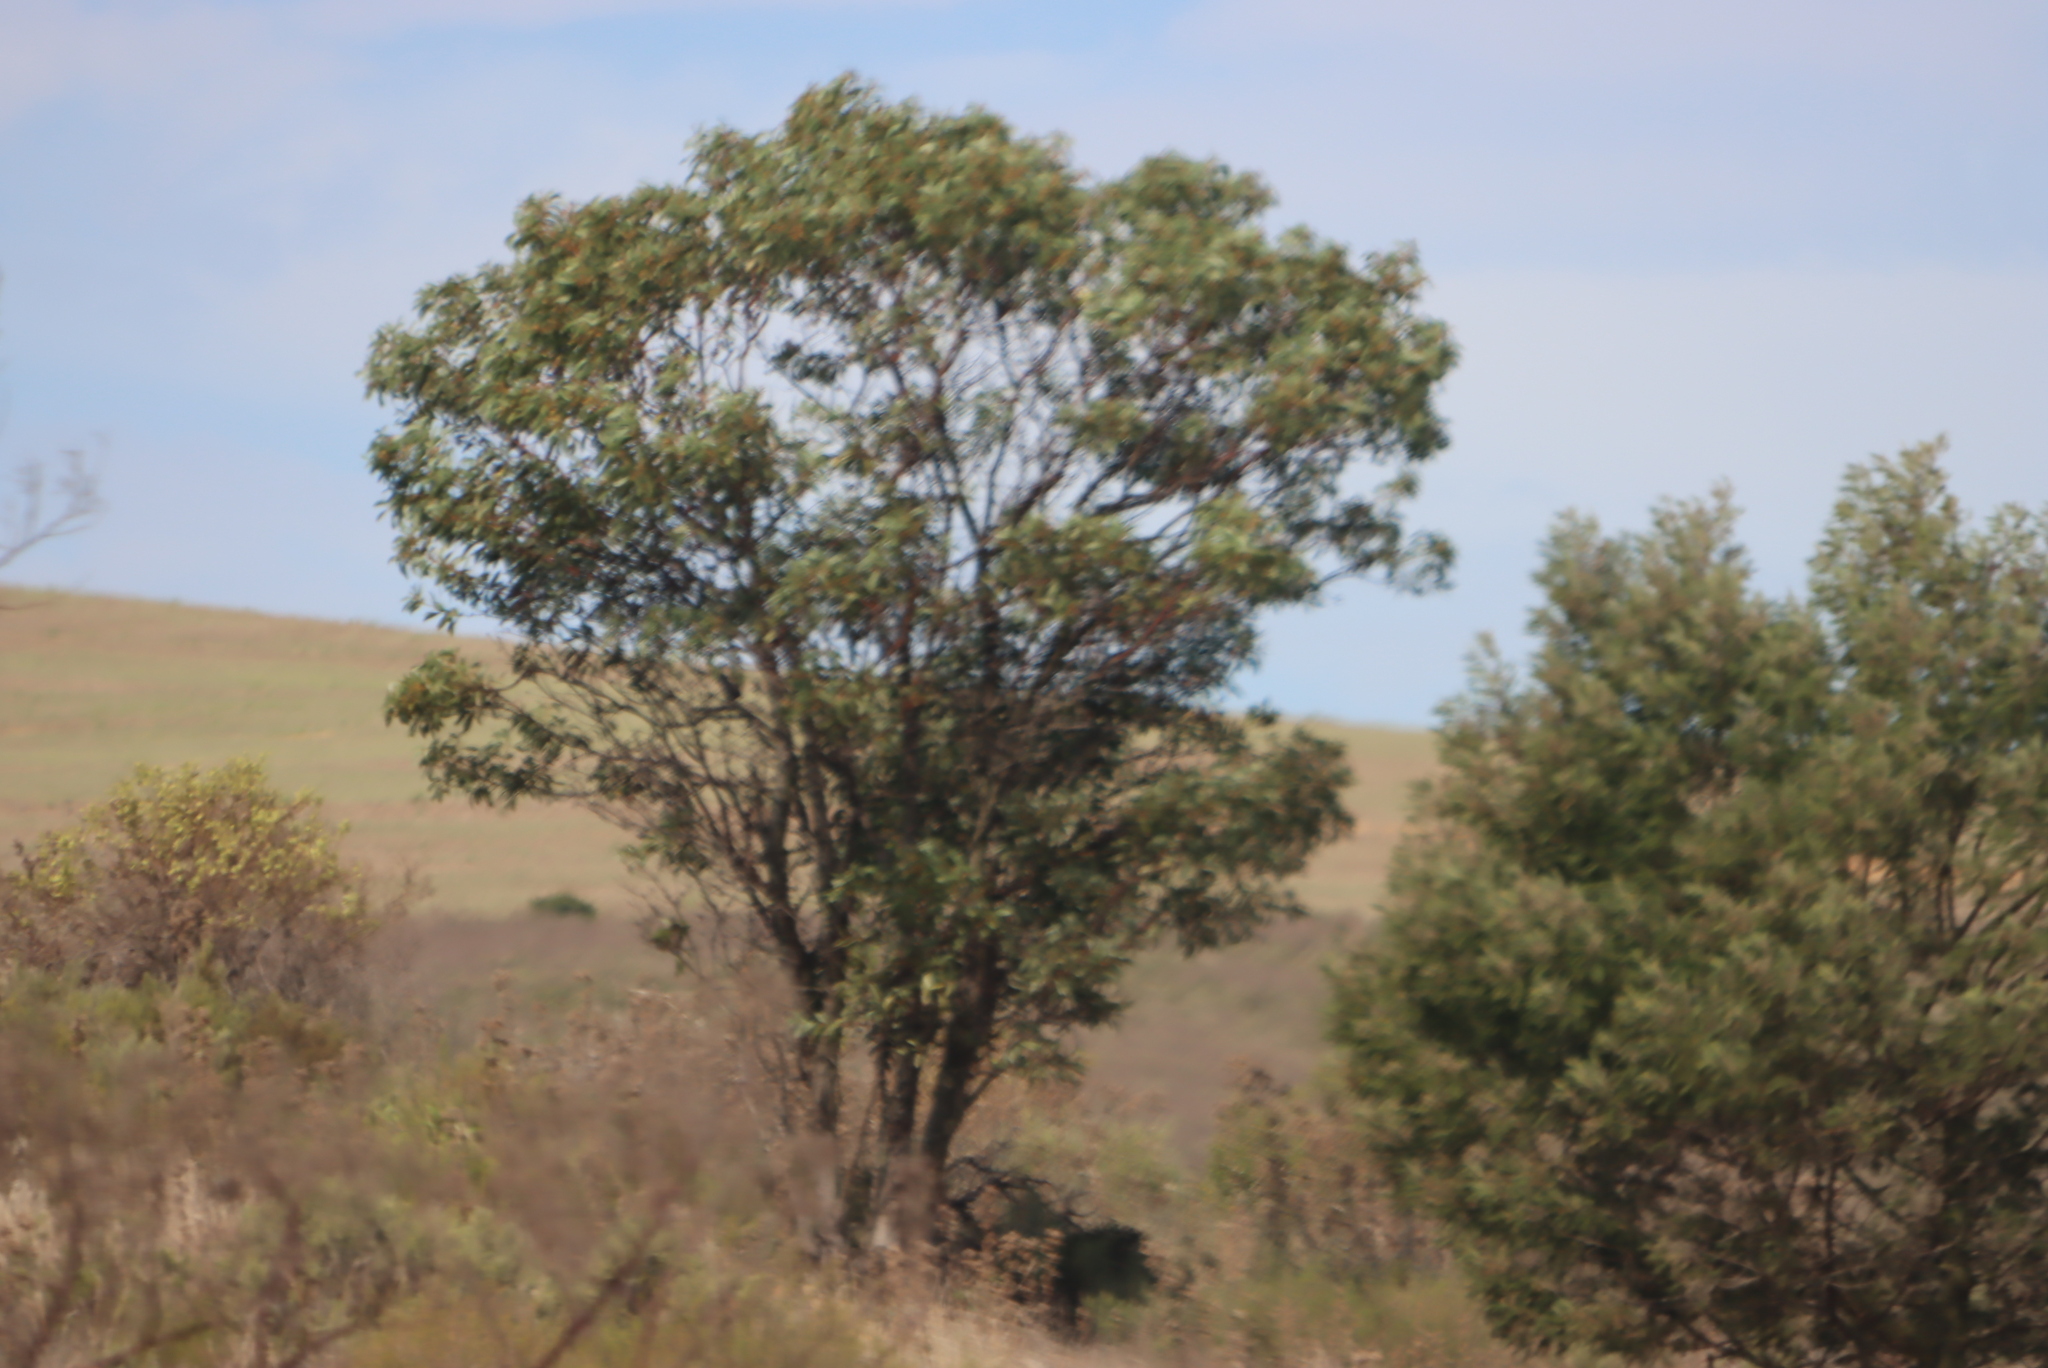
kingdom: Plantae
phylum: Tracheophyta
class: Magnoliopsida
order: Fabales
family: Fabaceae
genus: Acacia
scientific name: Acacia mearnsii
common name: Black wattle
